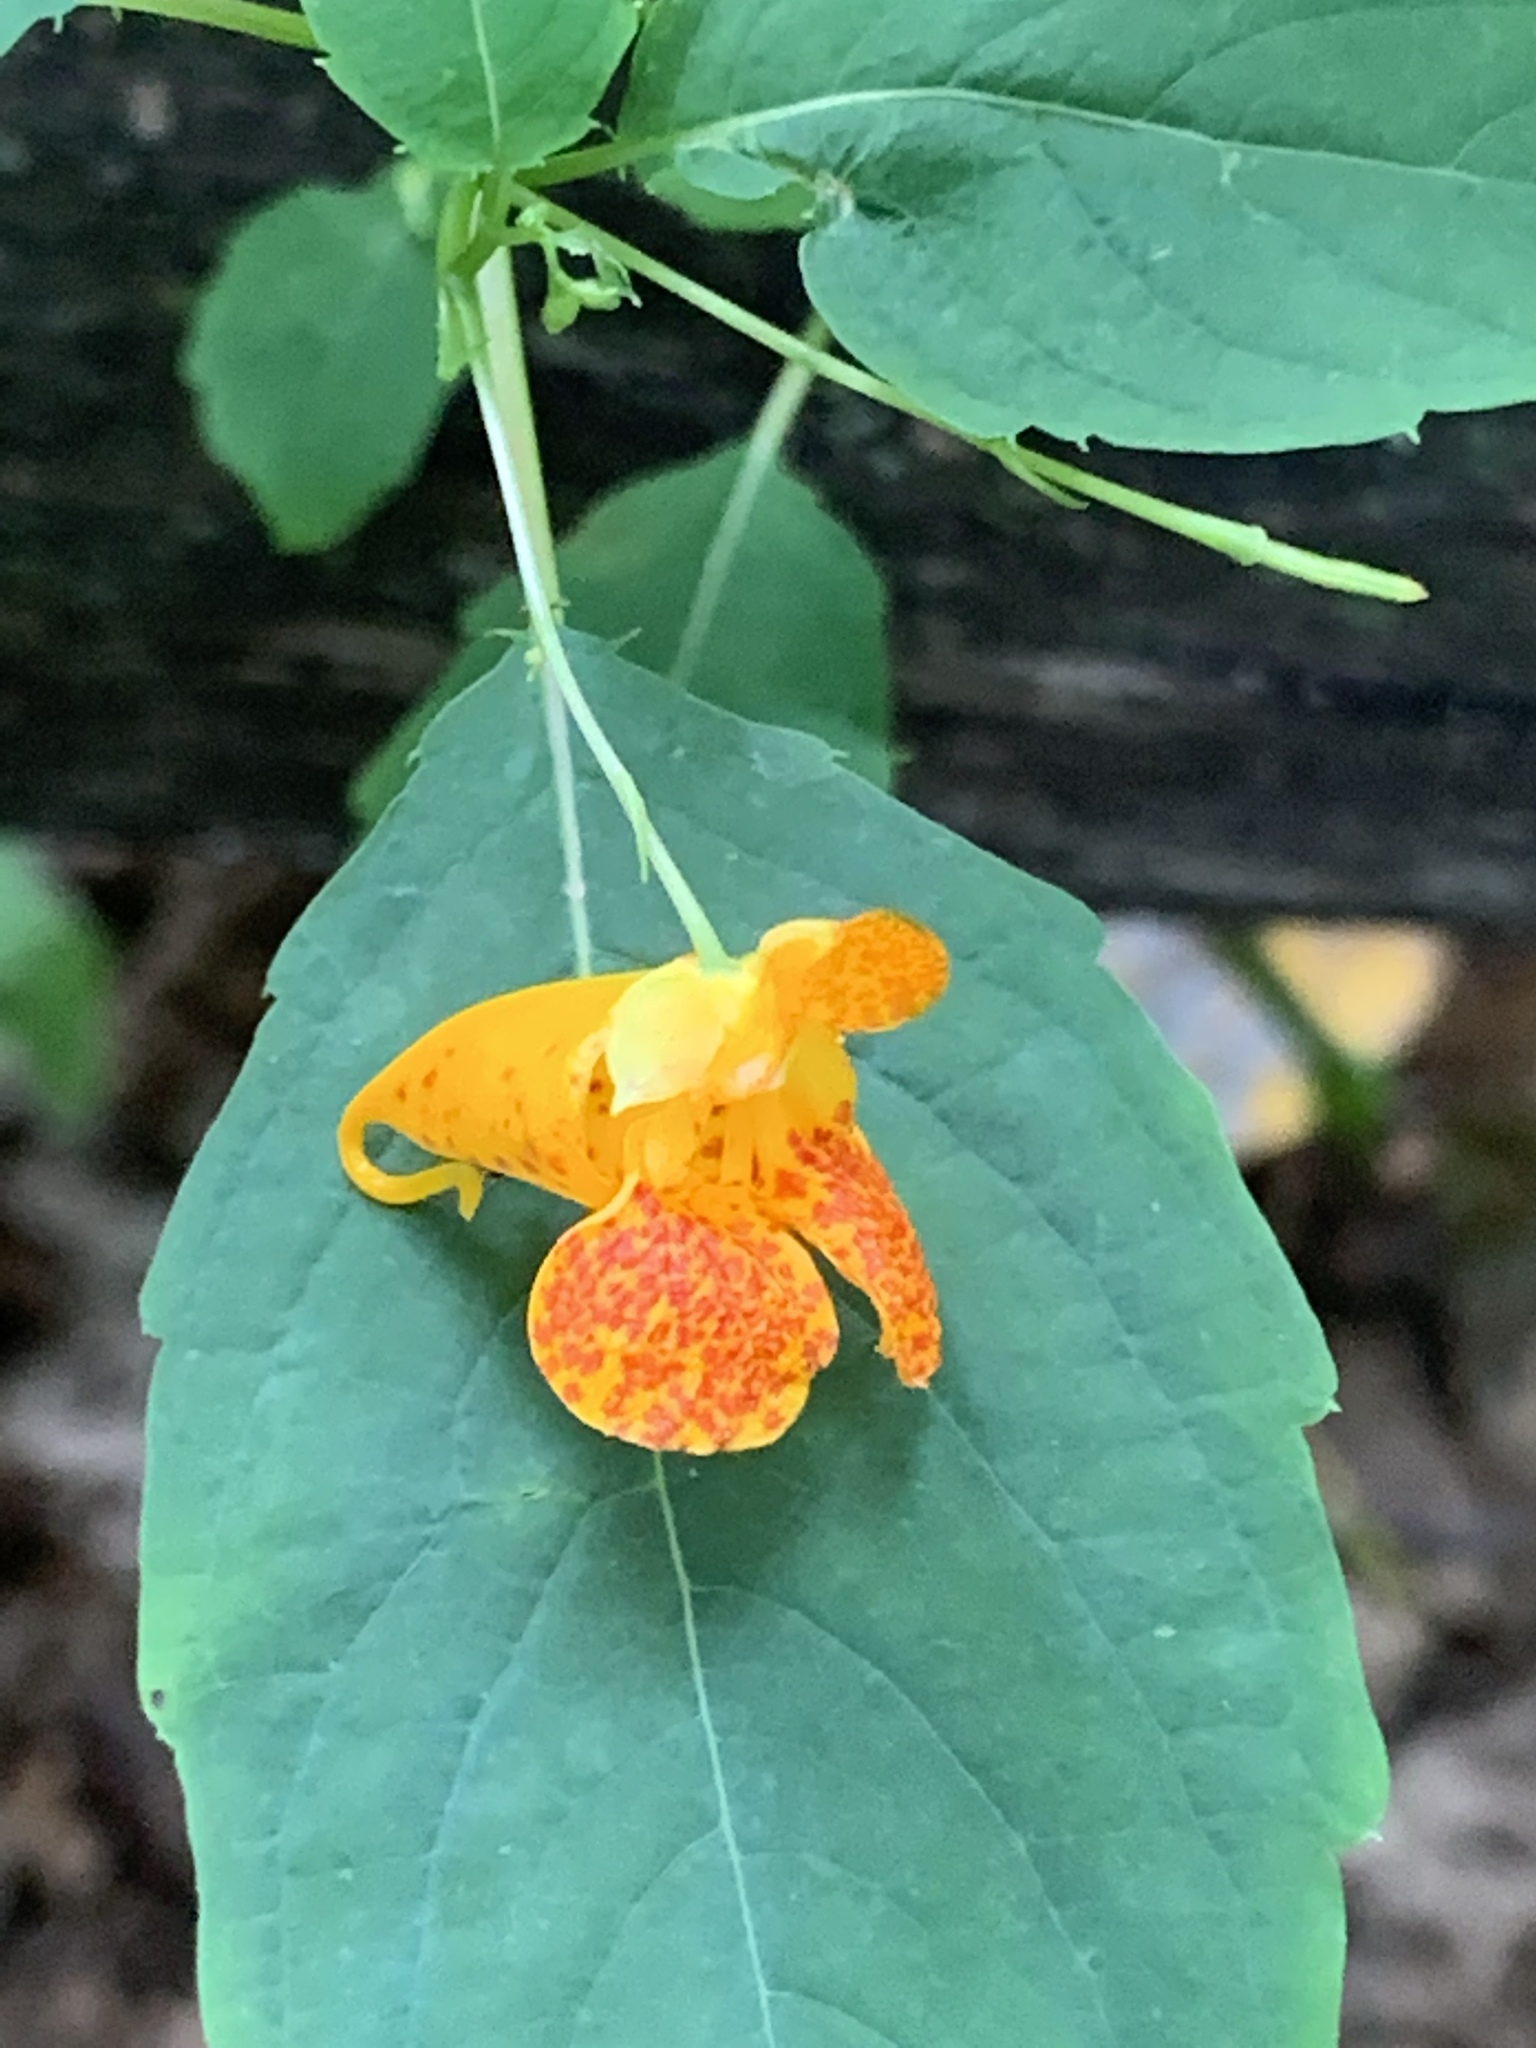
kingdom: Plantae
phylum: Tracheophyta
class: Magnoliopsida
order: Ericales
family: Balsaminaceae
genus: Impatiens
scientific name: Impatiens capensis
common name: Orange balsam
